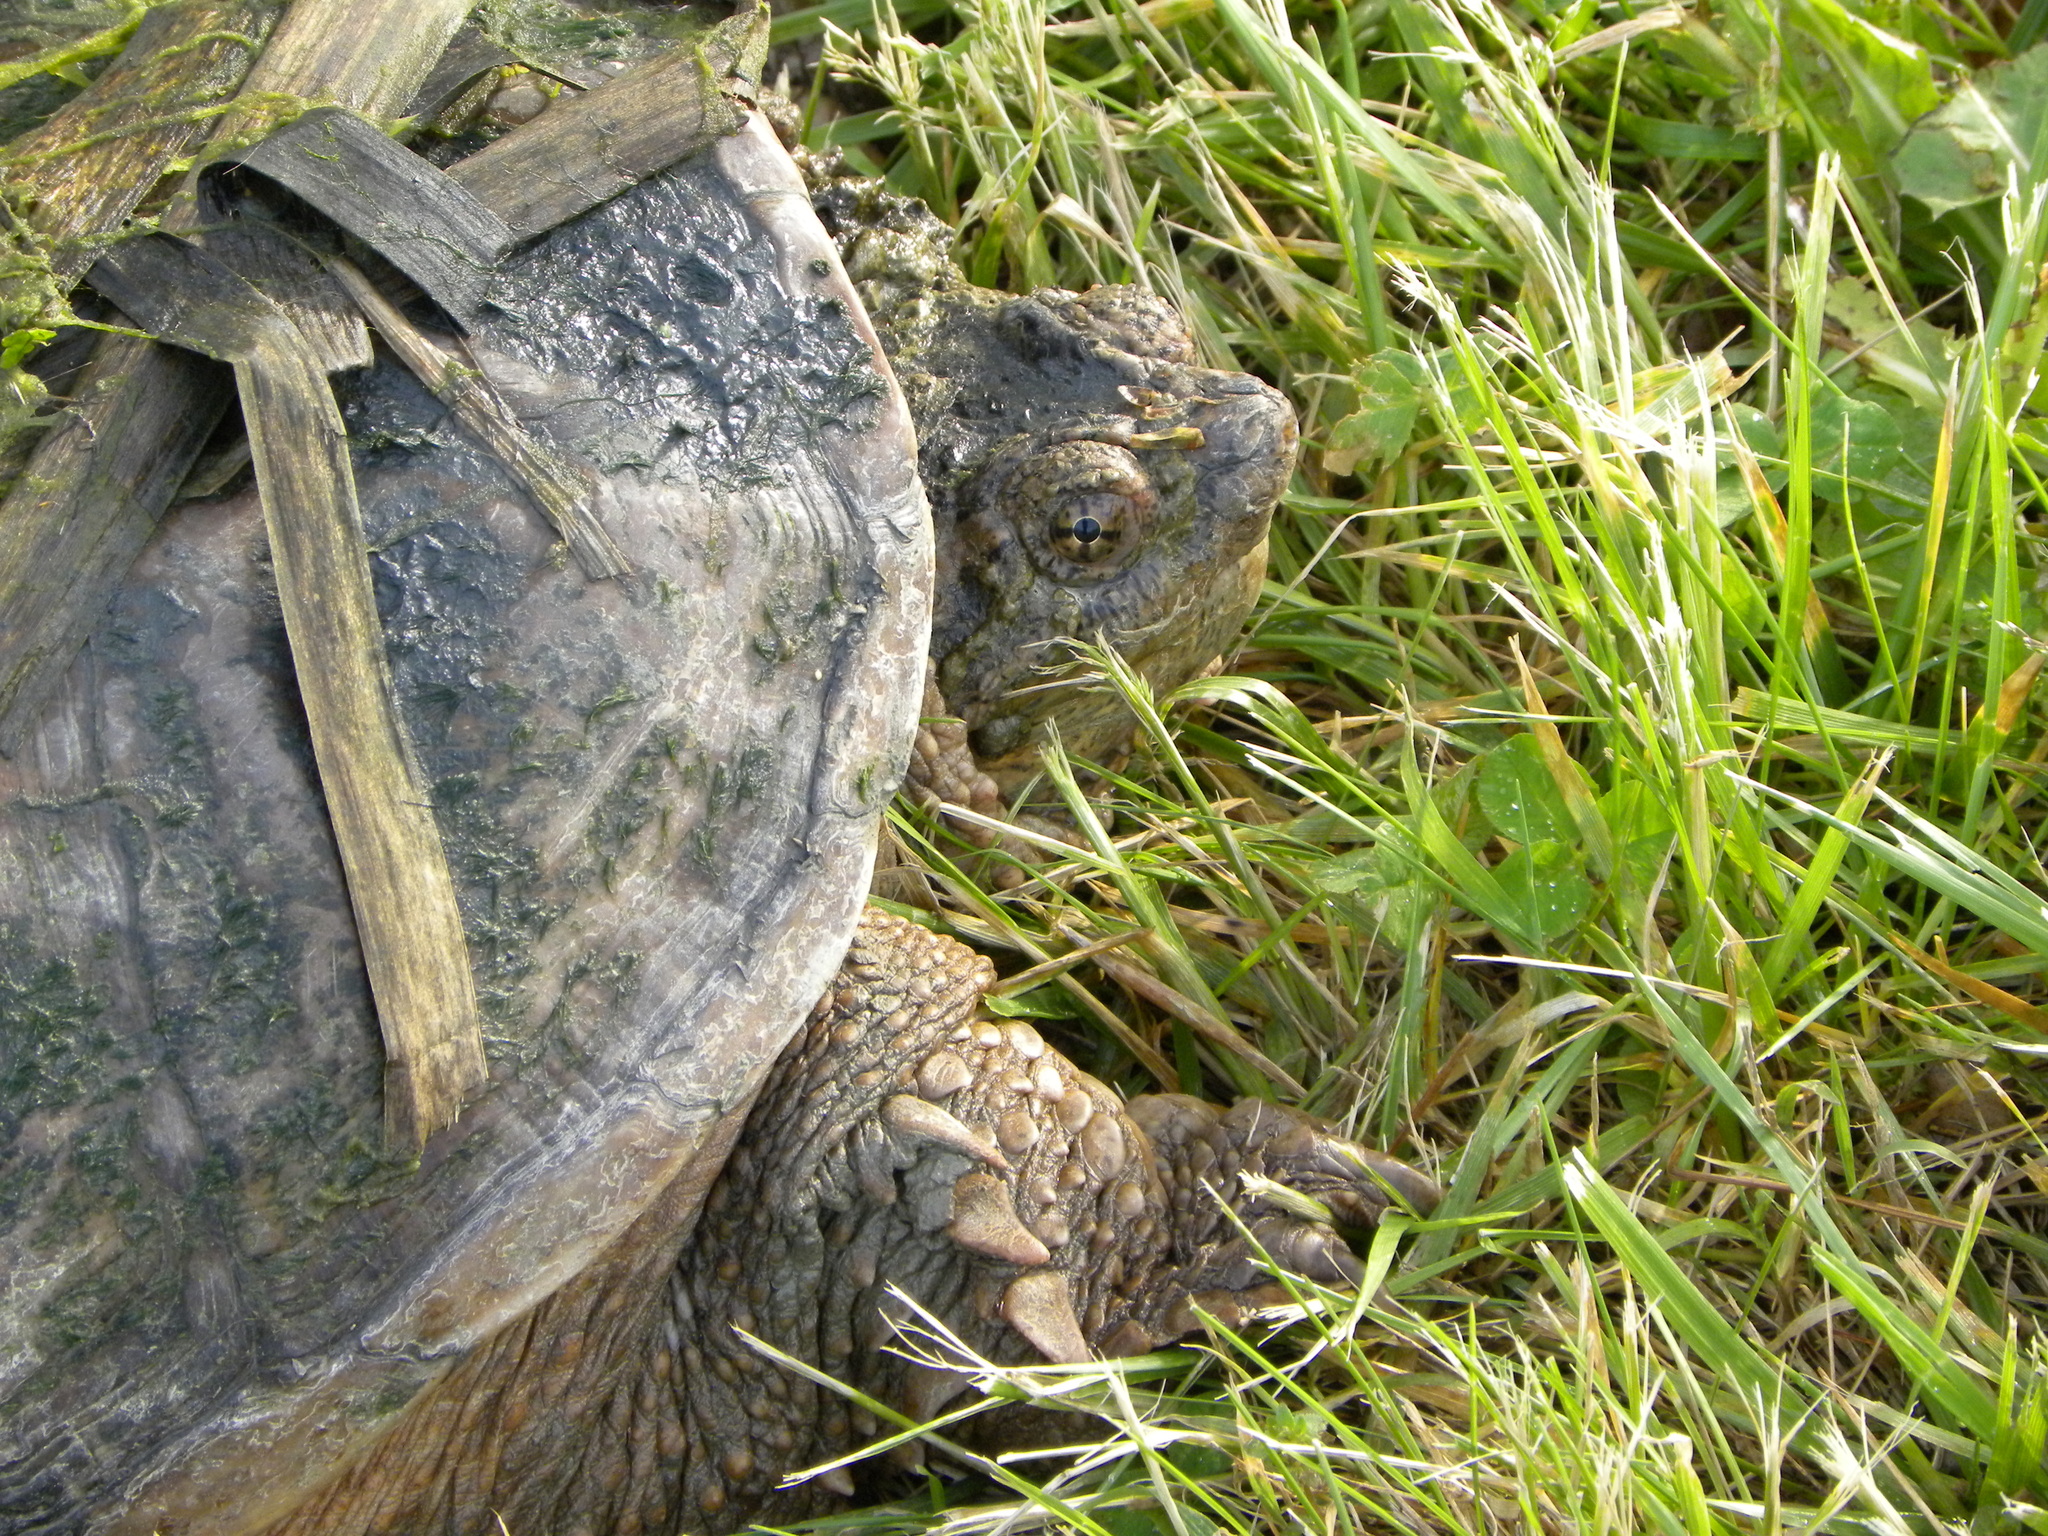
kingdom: Animalia
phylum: Chordata
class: Testudines
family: Chelydridae
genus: Chelydra
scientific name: Chelydra serpentina
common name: Common snapping turtle
